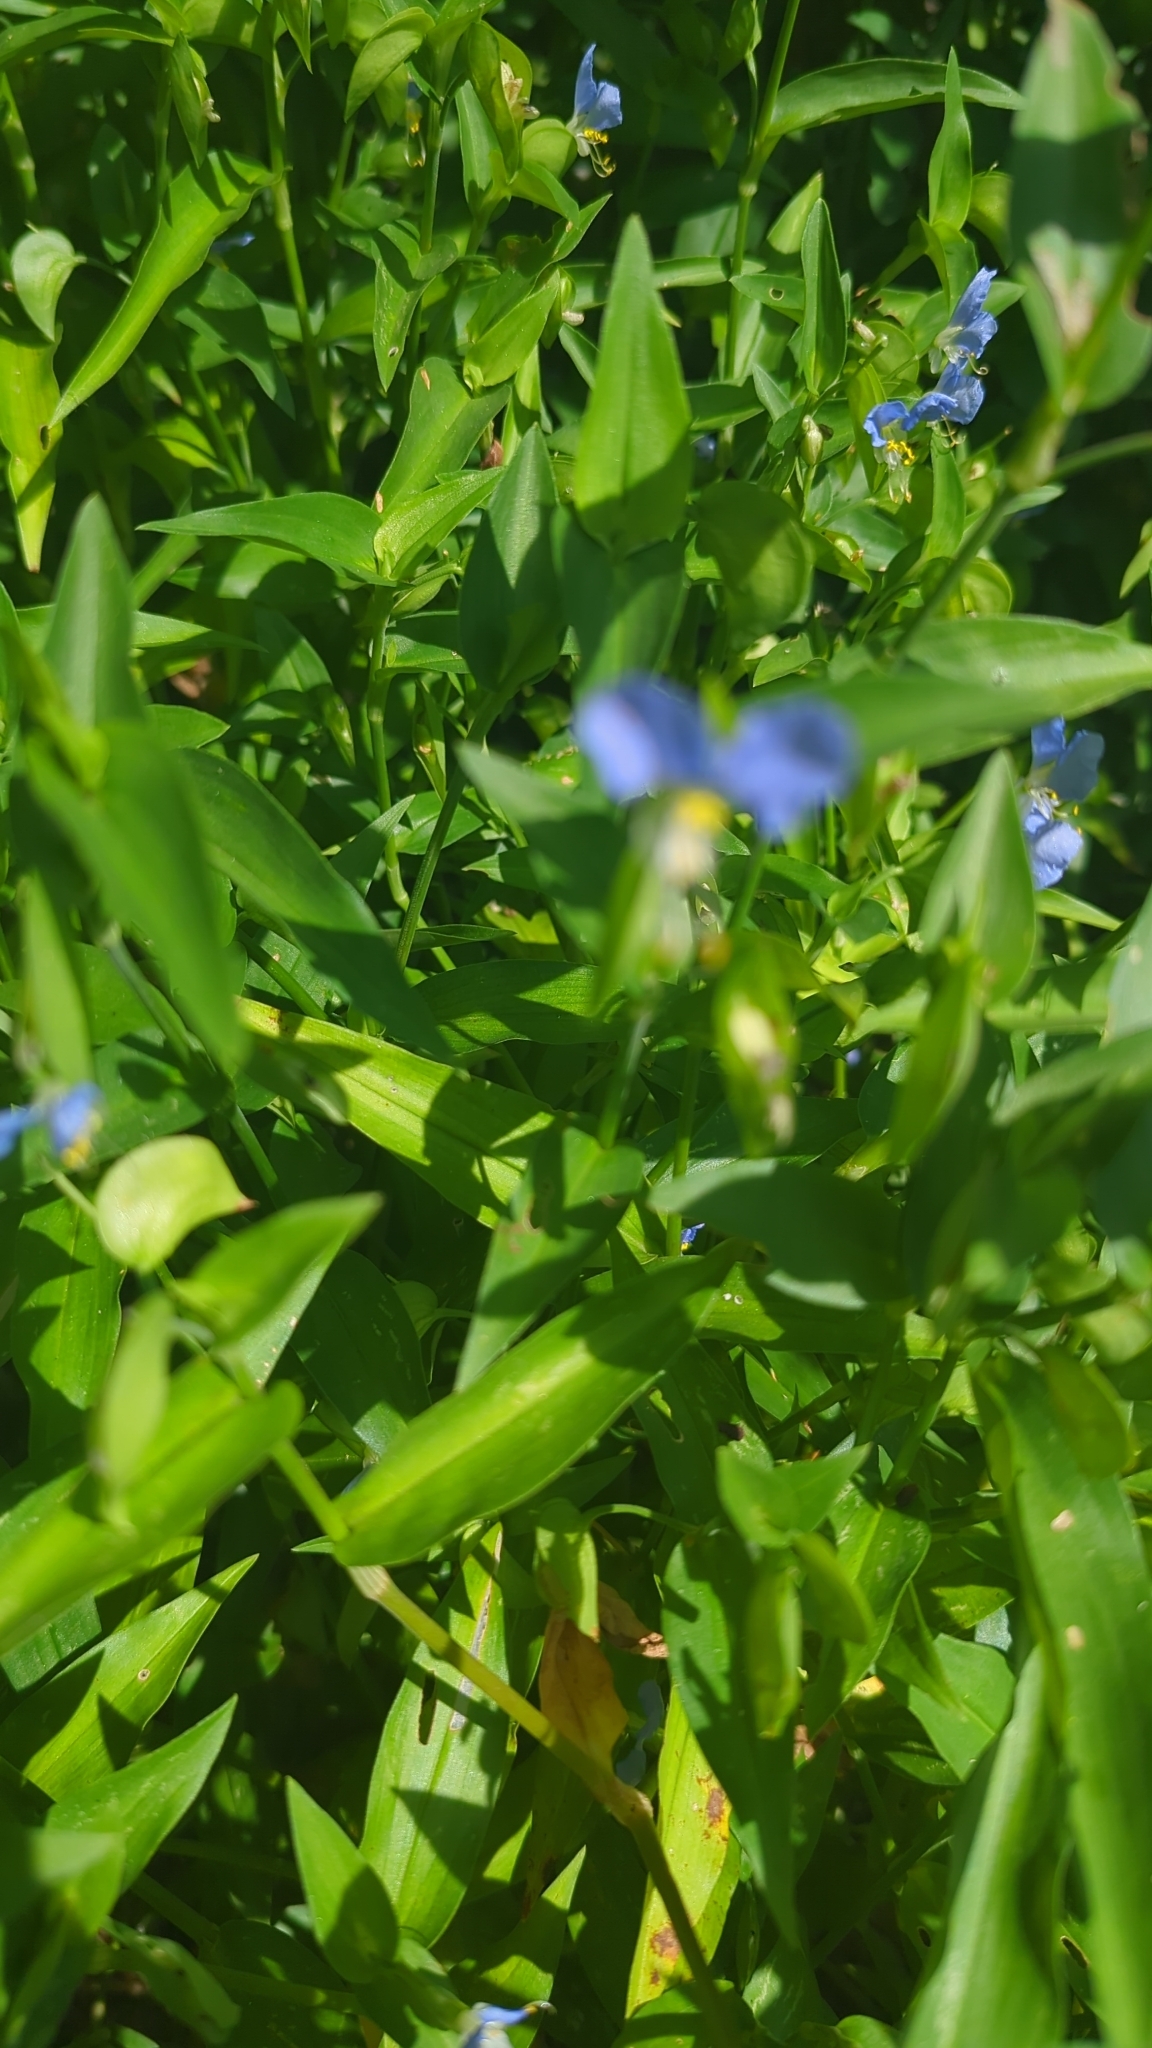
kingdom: Plantae
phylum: Tracheophyta
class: Liliopsida
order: Commelinales
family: Commelinaceae
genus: Commelina
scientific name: Commelina communis
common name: Asiatic dayflower
